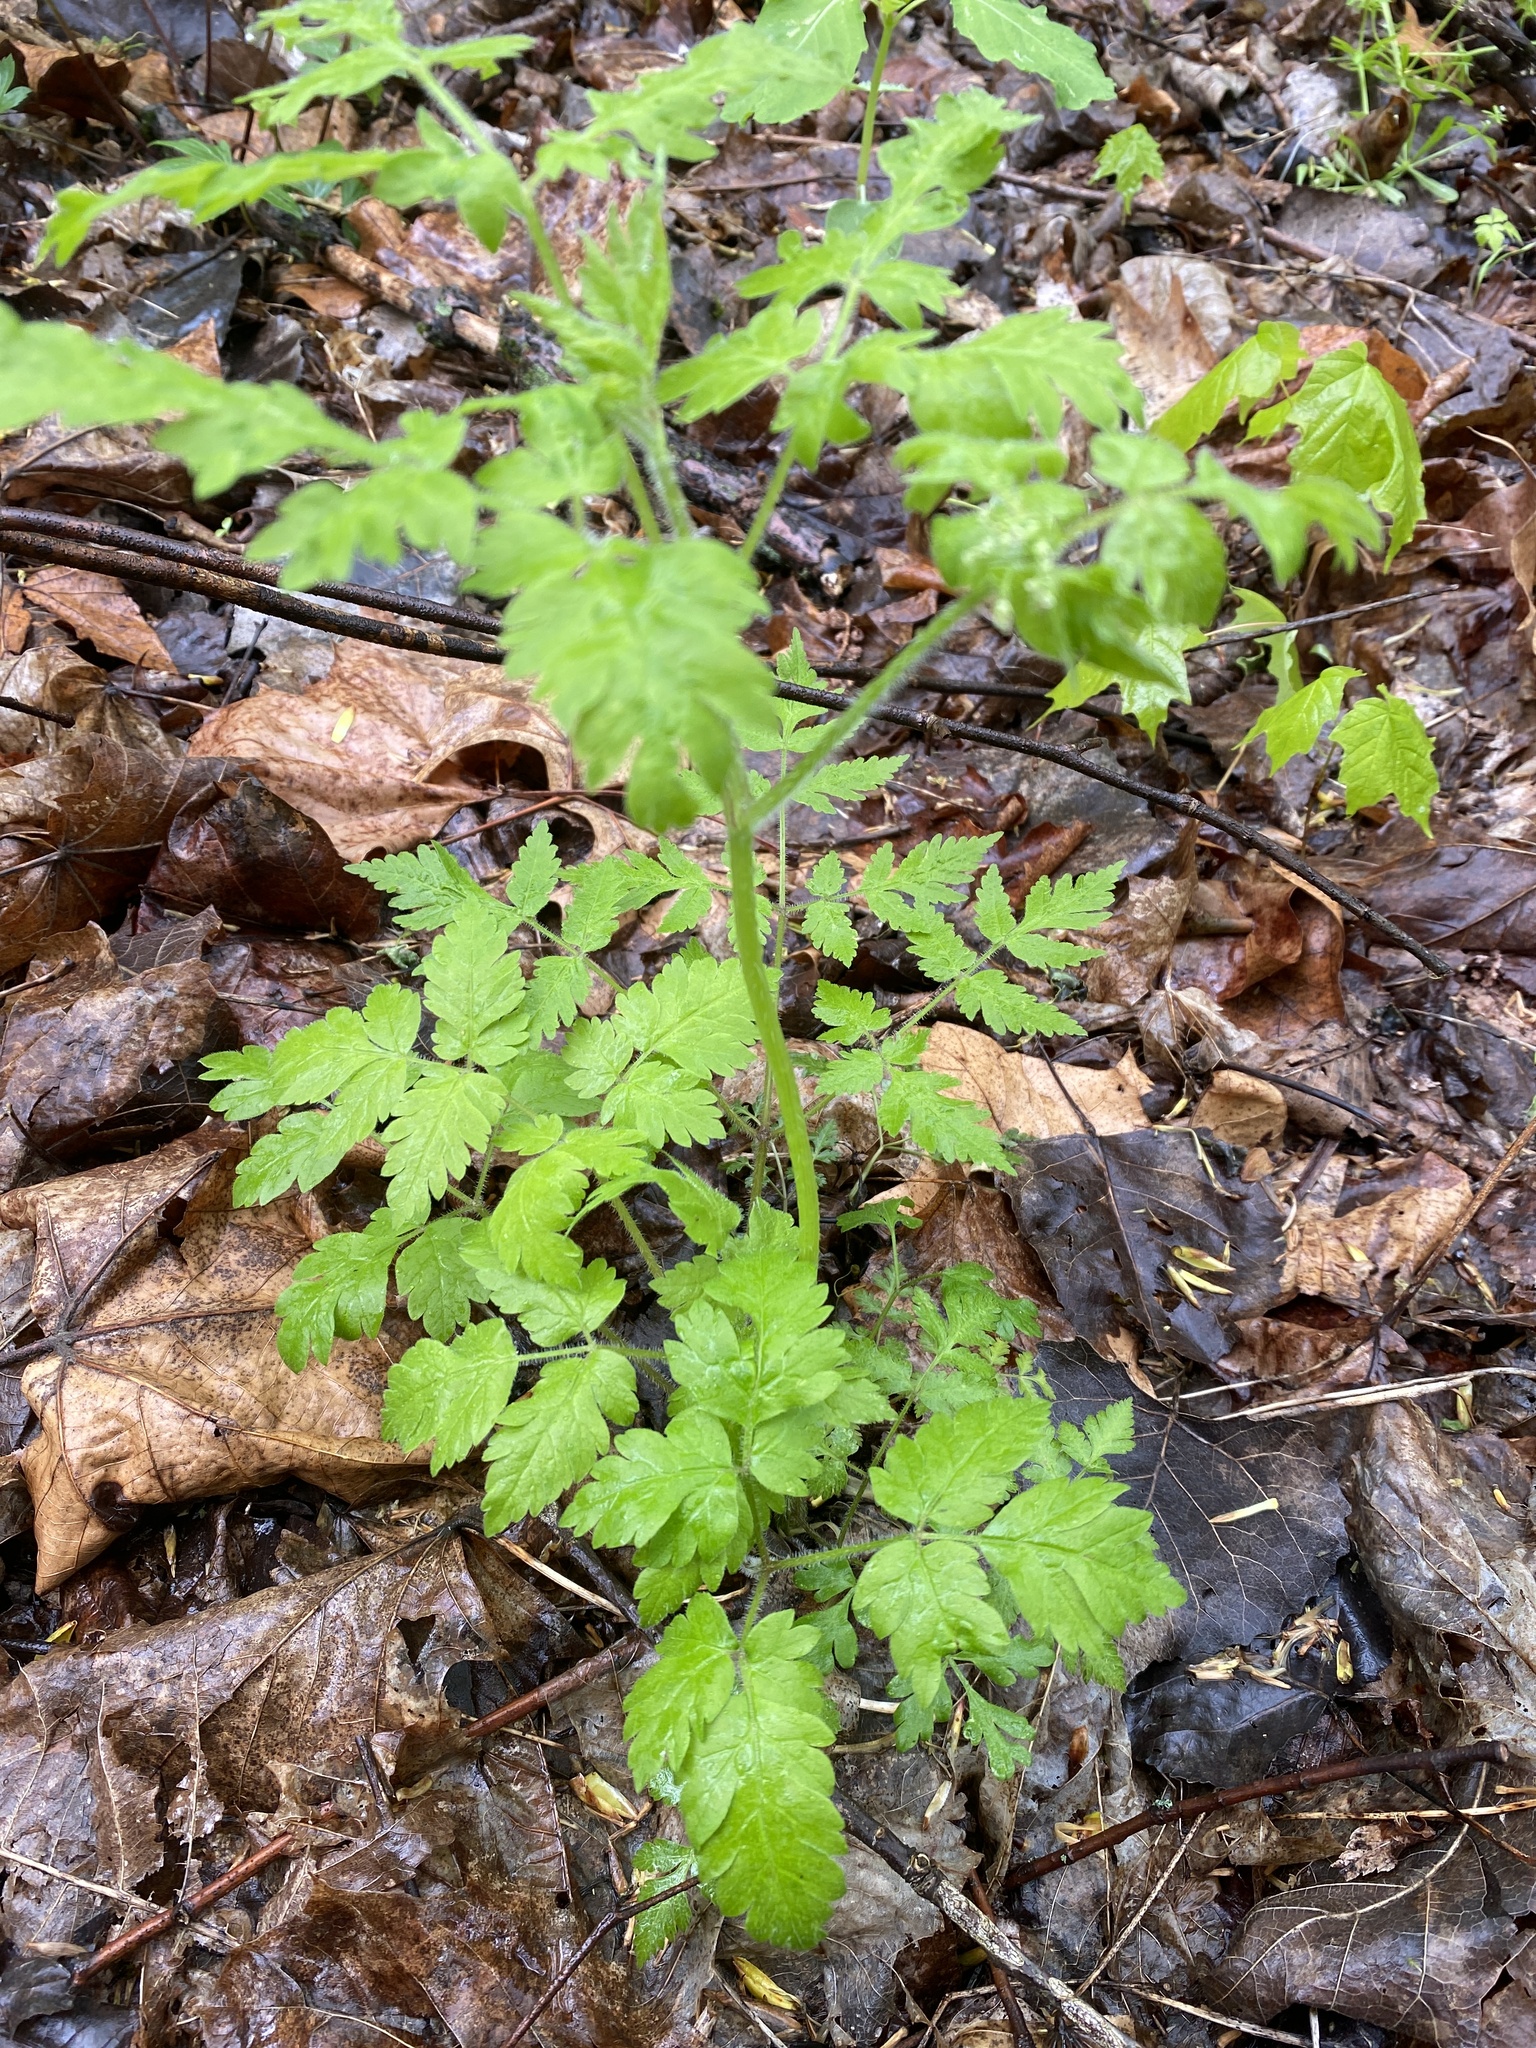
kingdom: Plantae
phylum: Tracheophyta
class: Magnoliopsida
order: Apiales
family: Apiaceae
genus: Osmorhiza
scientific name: Osmorhiza claytonii
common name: Hairy sweet cicely
